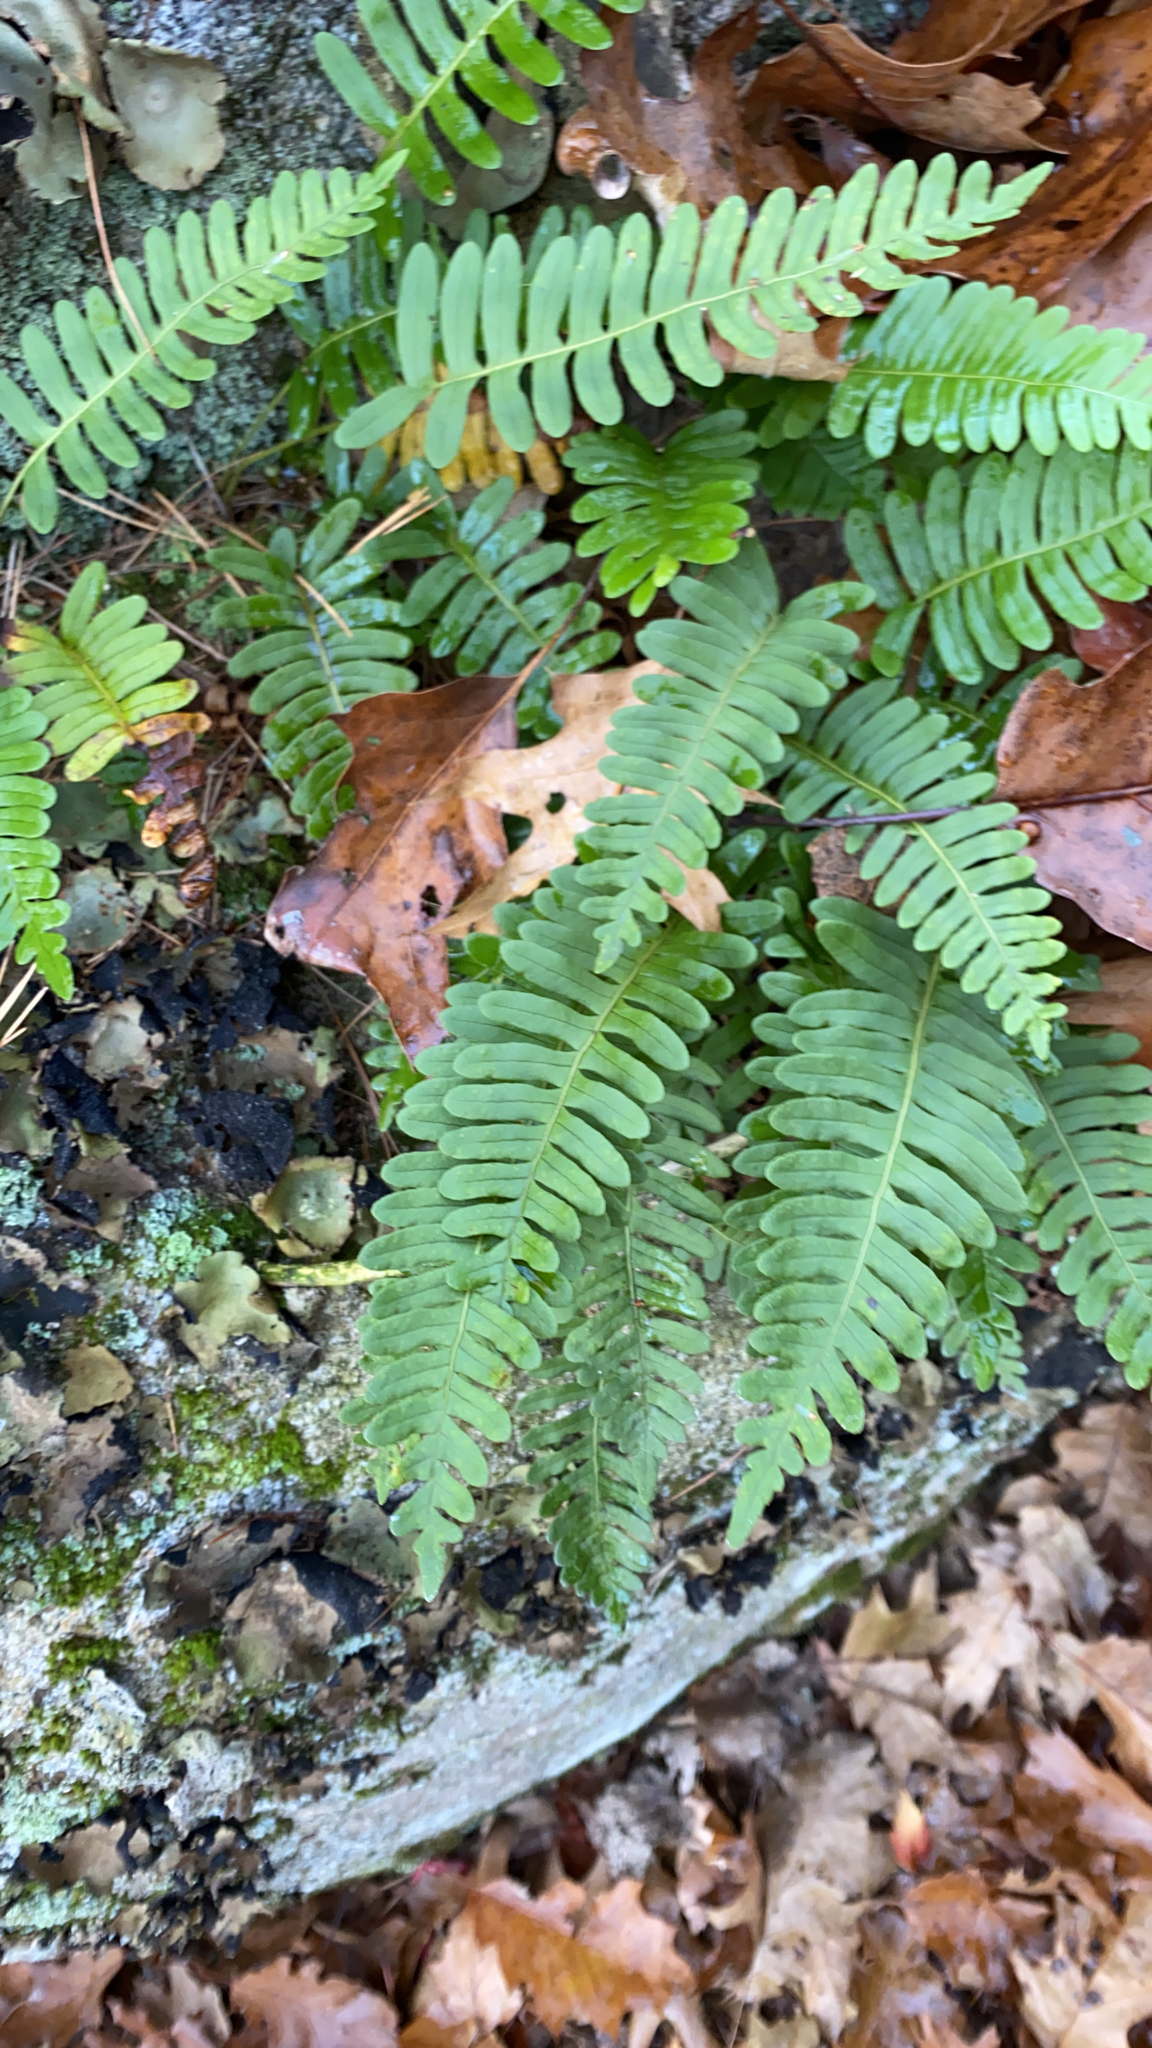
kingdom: Plantae
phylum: Tracheophyta
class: Polypodiopsida
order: Polypodiales
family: Polypodiaceae
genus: Polypodium
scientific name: Polypodium virginianum
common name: American wall fern
